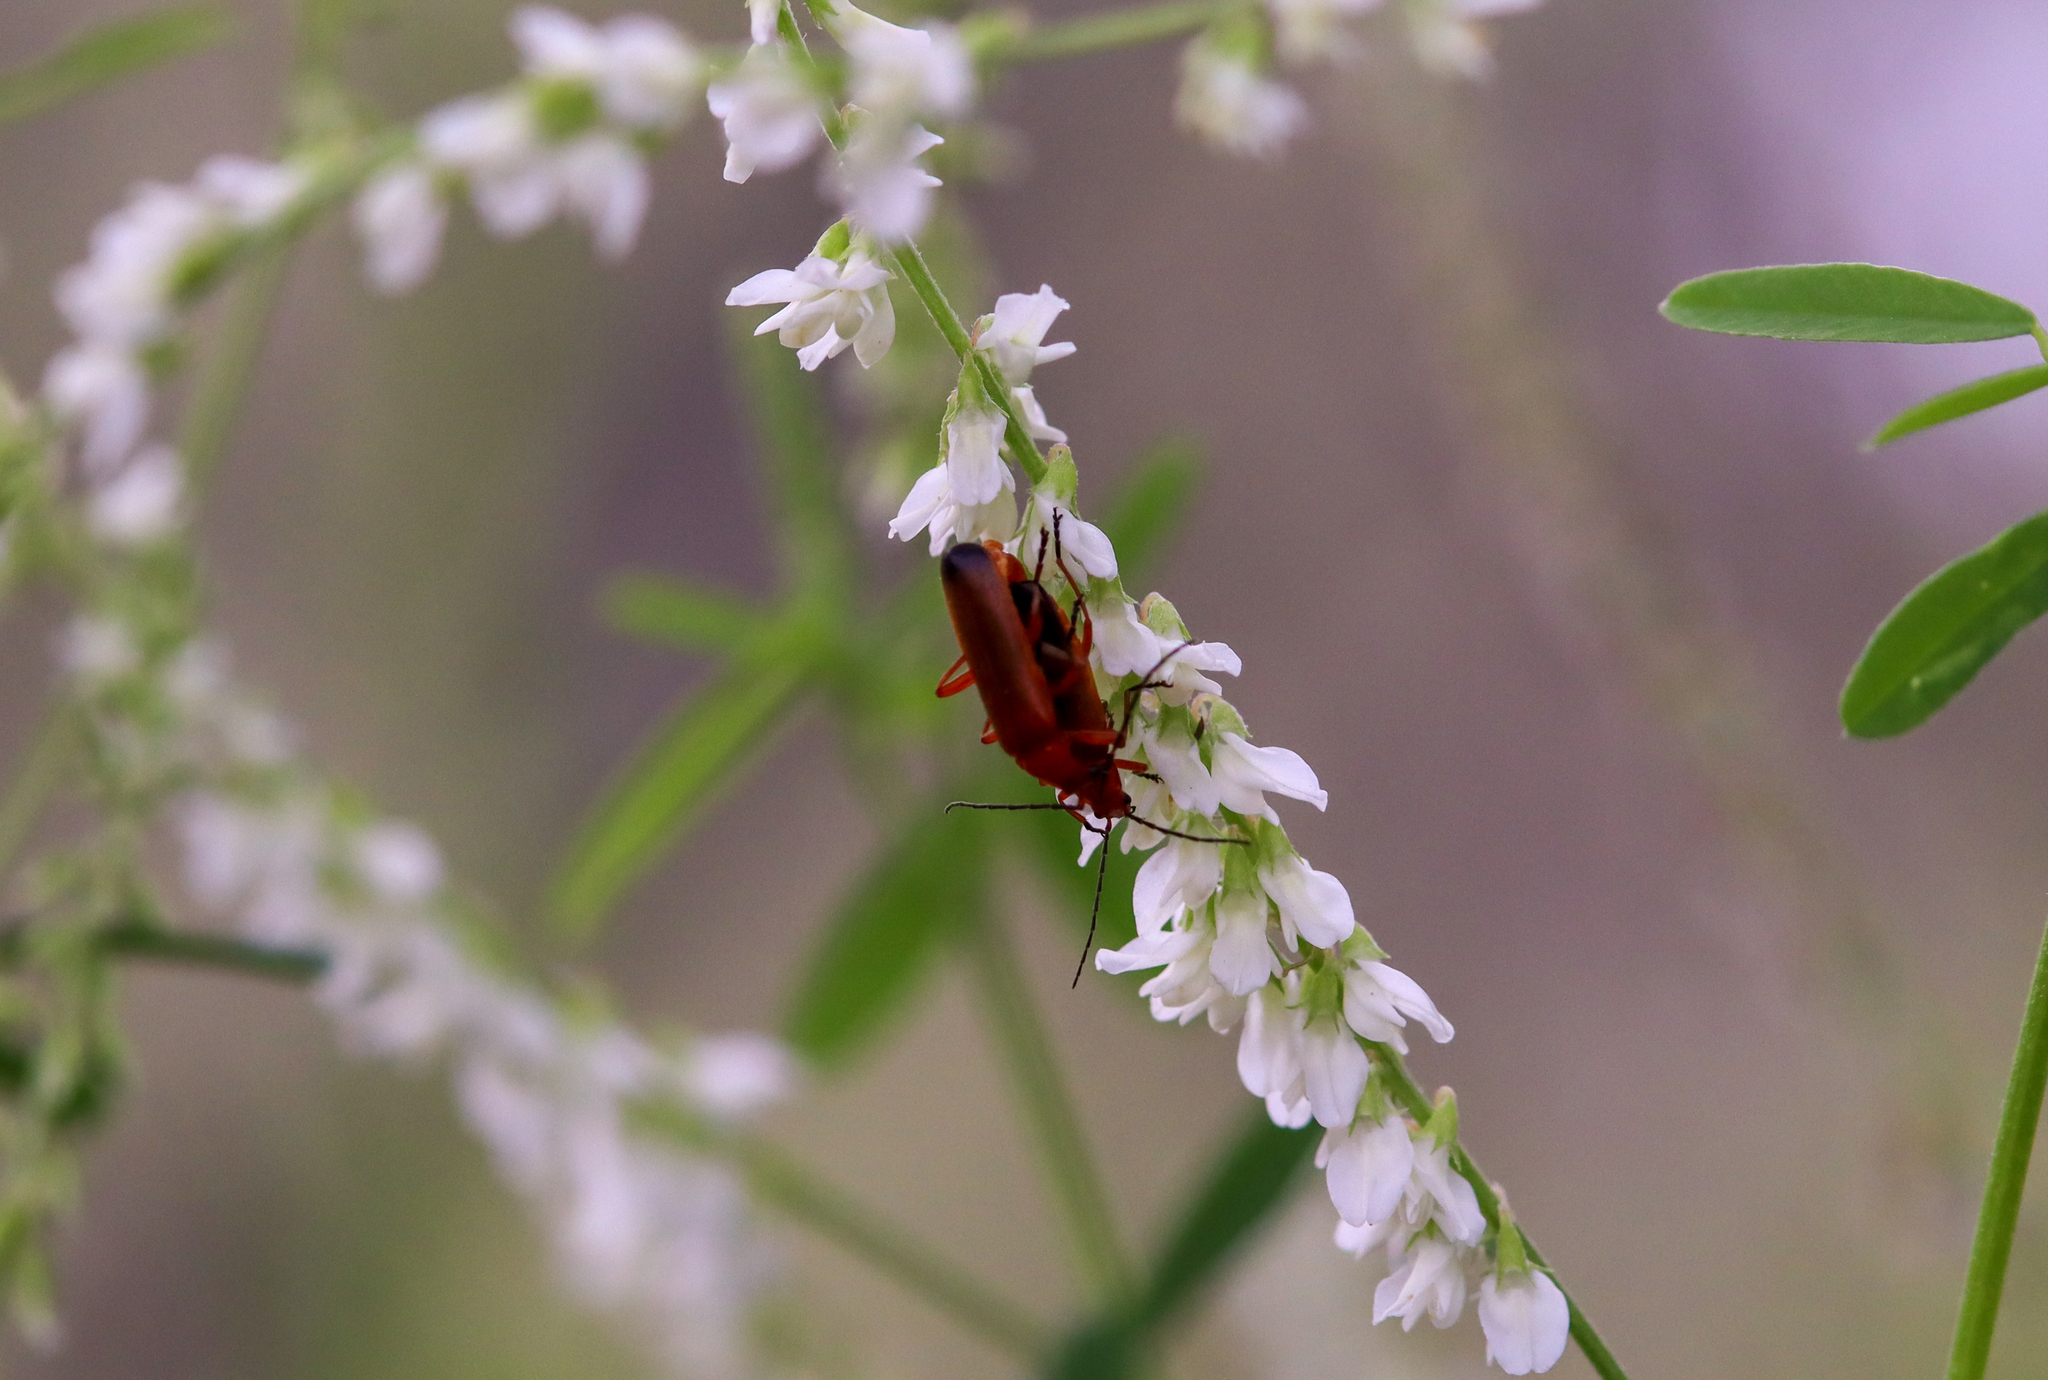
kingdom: Animalia
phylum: Arthropoda
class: Insecta
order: Coleoptera
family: Cantharidae
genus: Rhagonycha
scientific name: Rhagonycha fulva
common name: Common red soldier beetle
